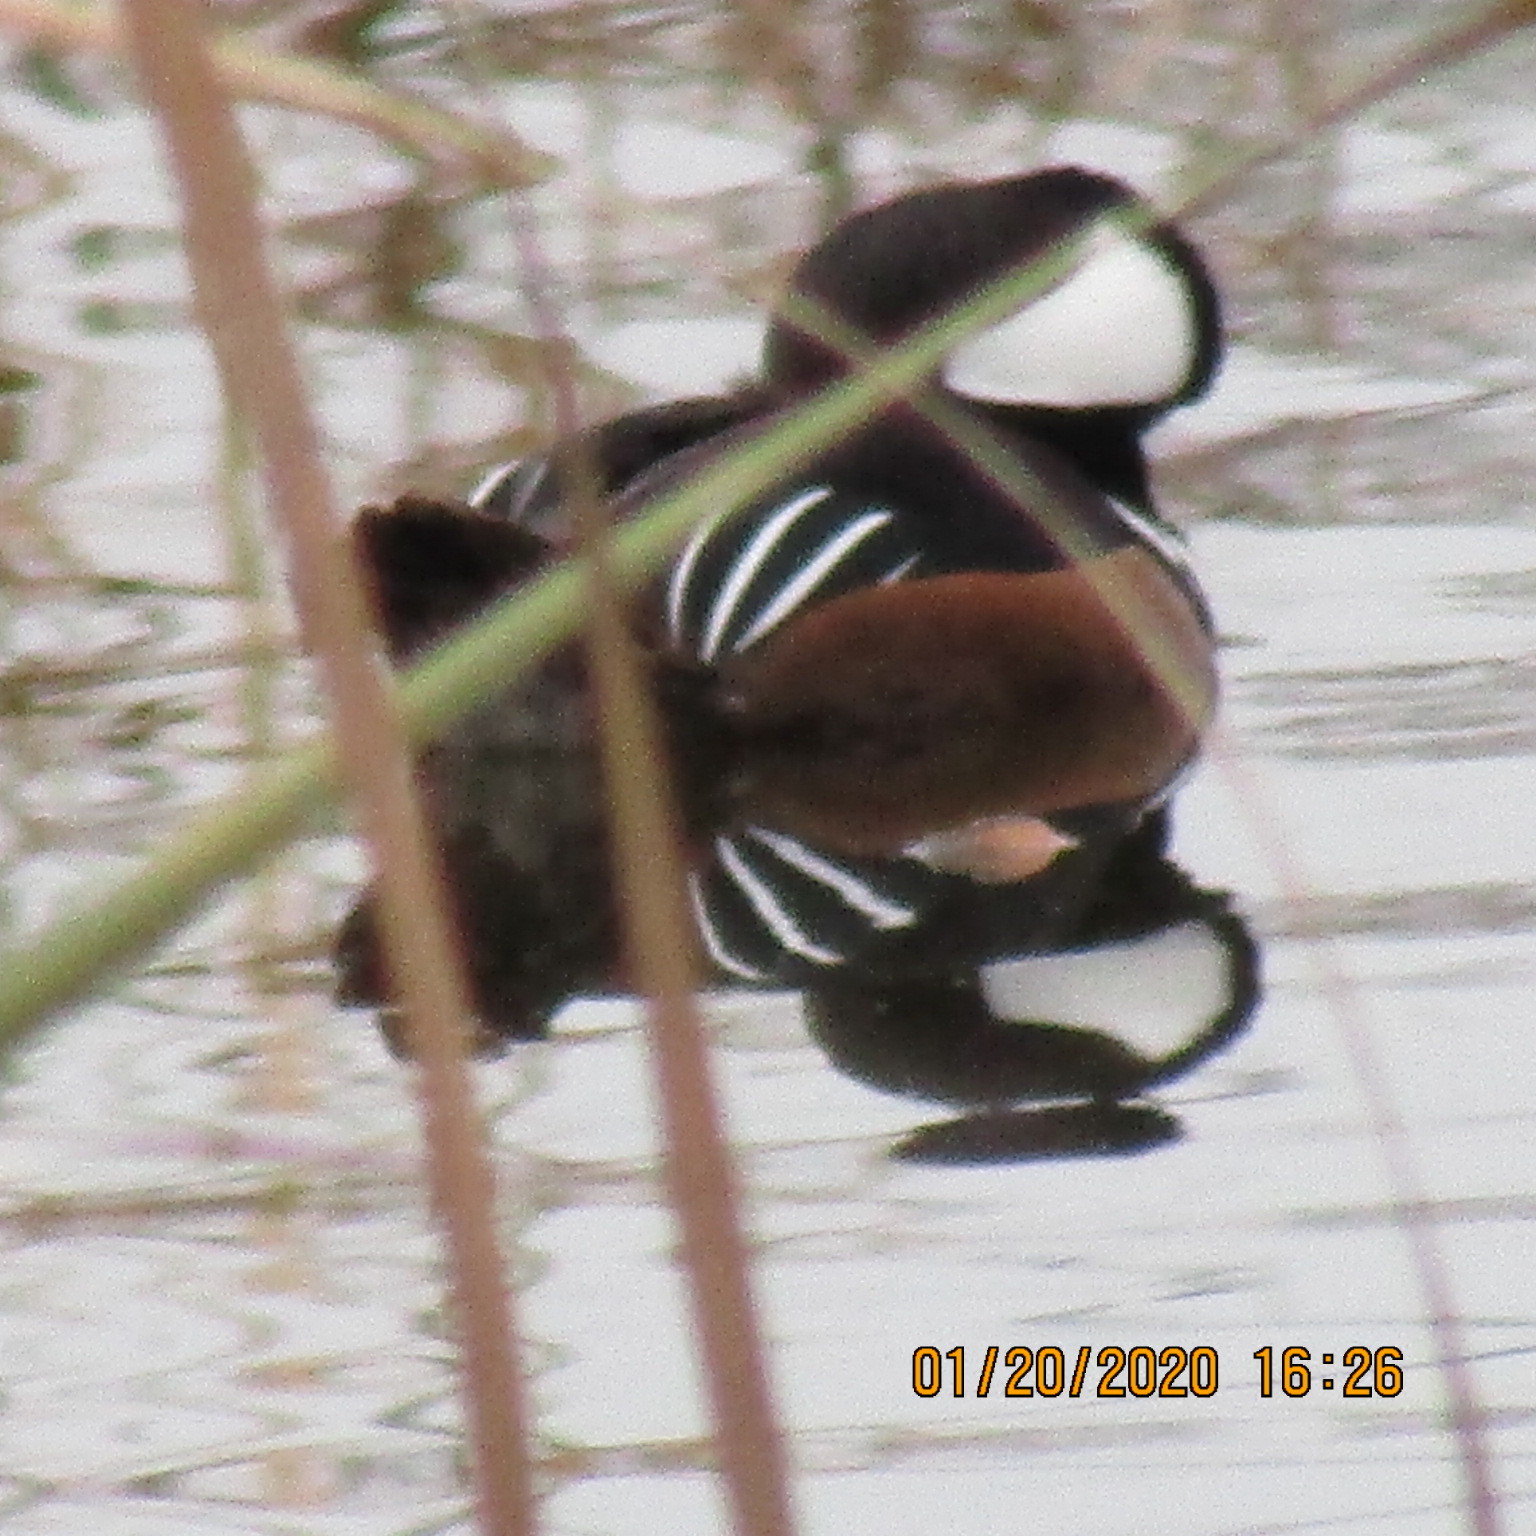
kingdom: Animalia
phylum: Chordata
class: Aves
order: Anseriformes
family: Anatidae
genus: Lophodytes
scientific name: Lophodytes cucullatus
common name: Hooded merganser
